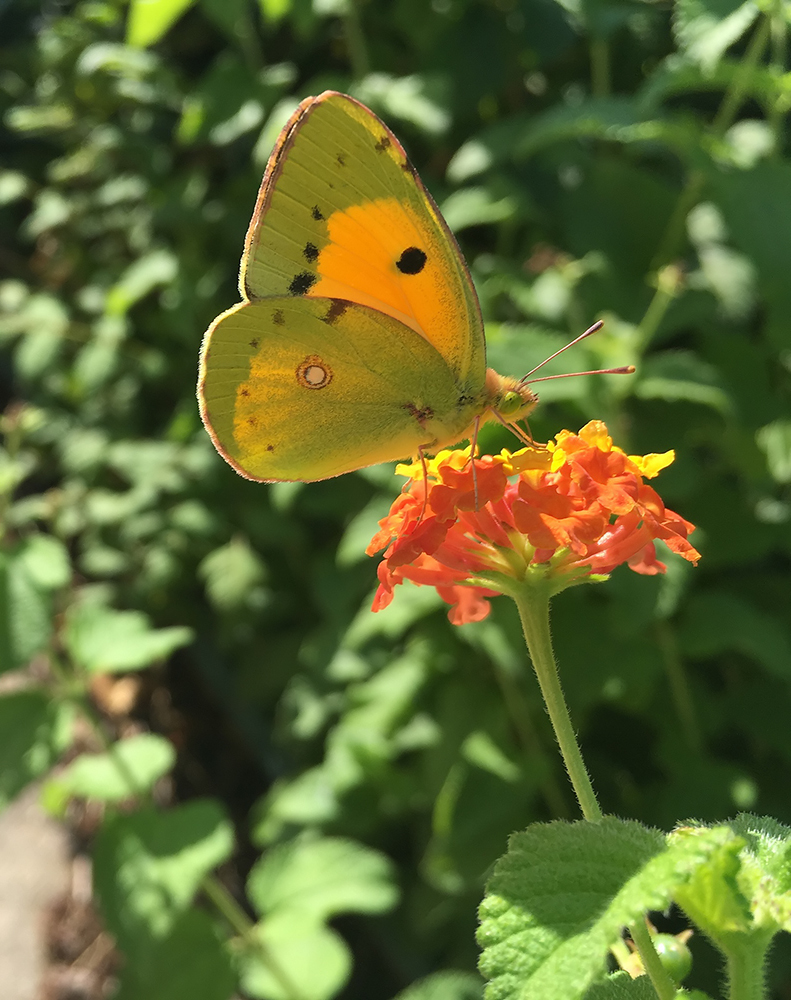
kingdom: Animalia
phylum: Arthropoda
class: Insecta
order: Lepidoptera
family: Pieridae
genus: Colias
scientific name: Colias croceus
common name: Clouded yellow
